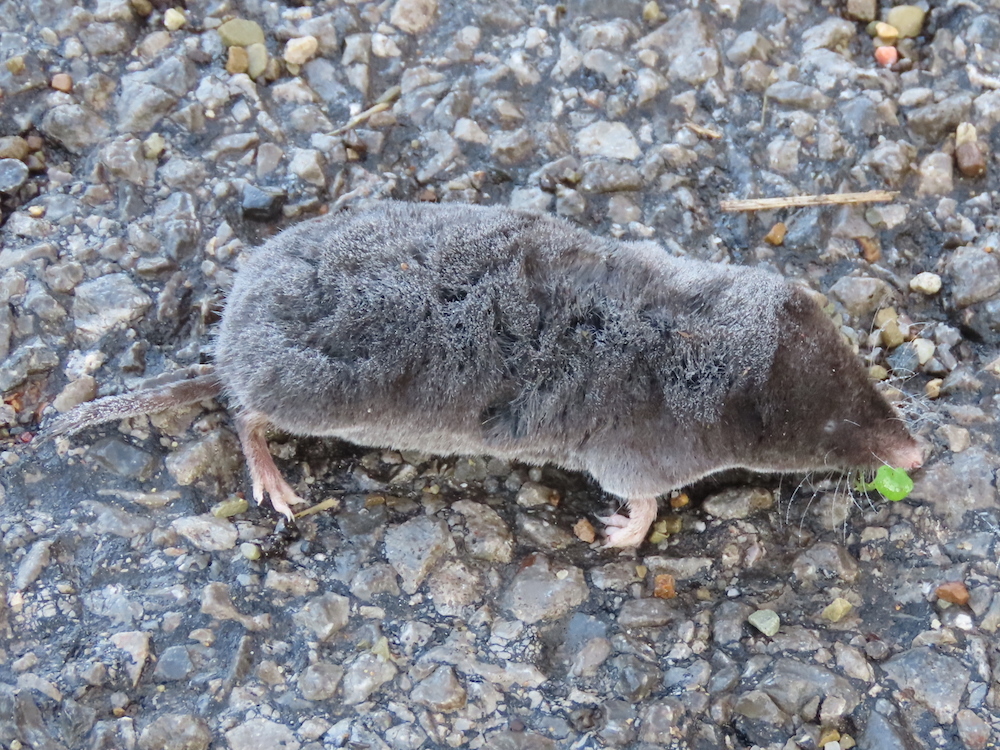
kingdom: Animalia
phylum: Chordata
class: Mammalia
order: Soricomorpha
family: Soricidae
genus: Blarina
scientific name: Blarina brevicauda
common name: Northern short-tailed shrew
